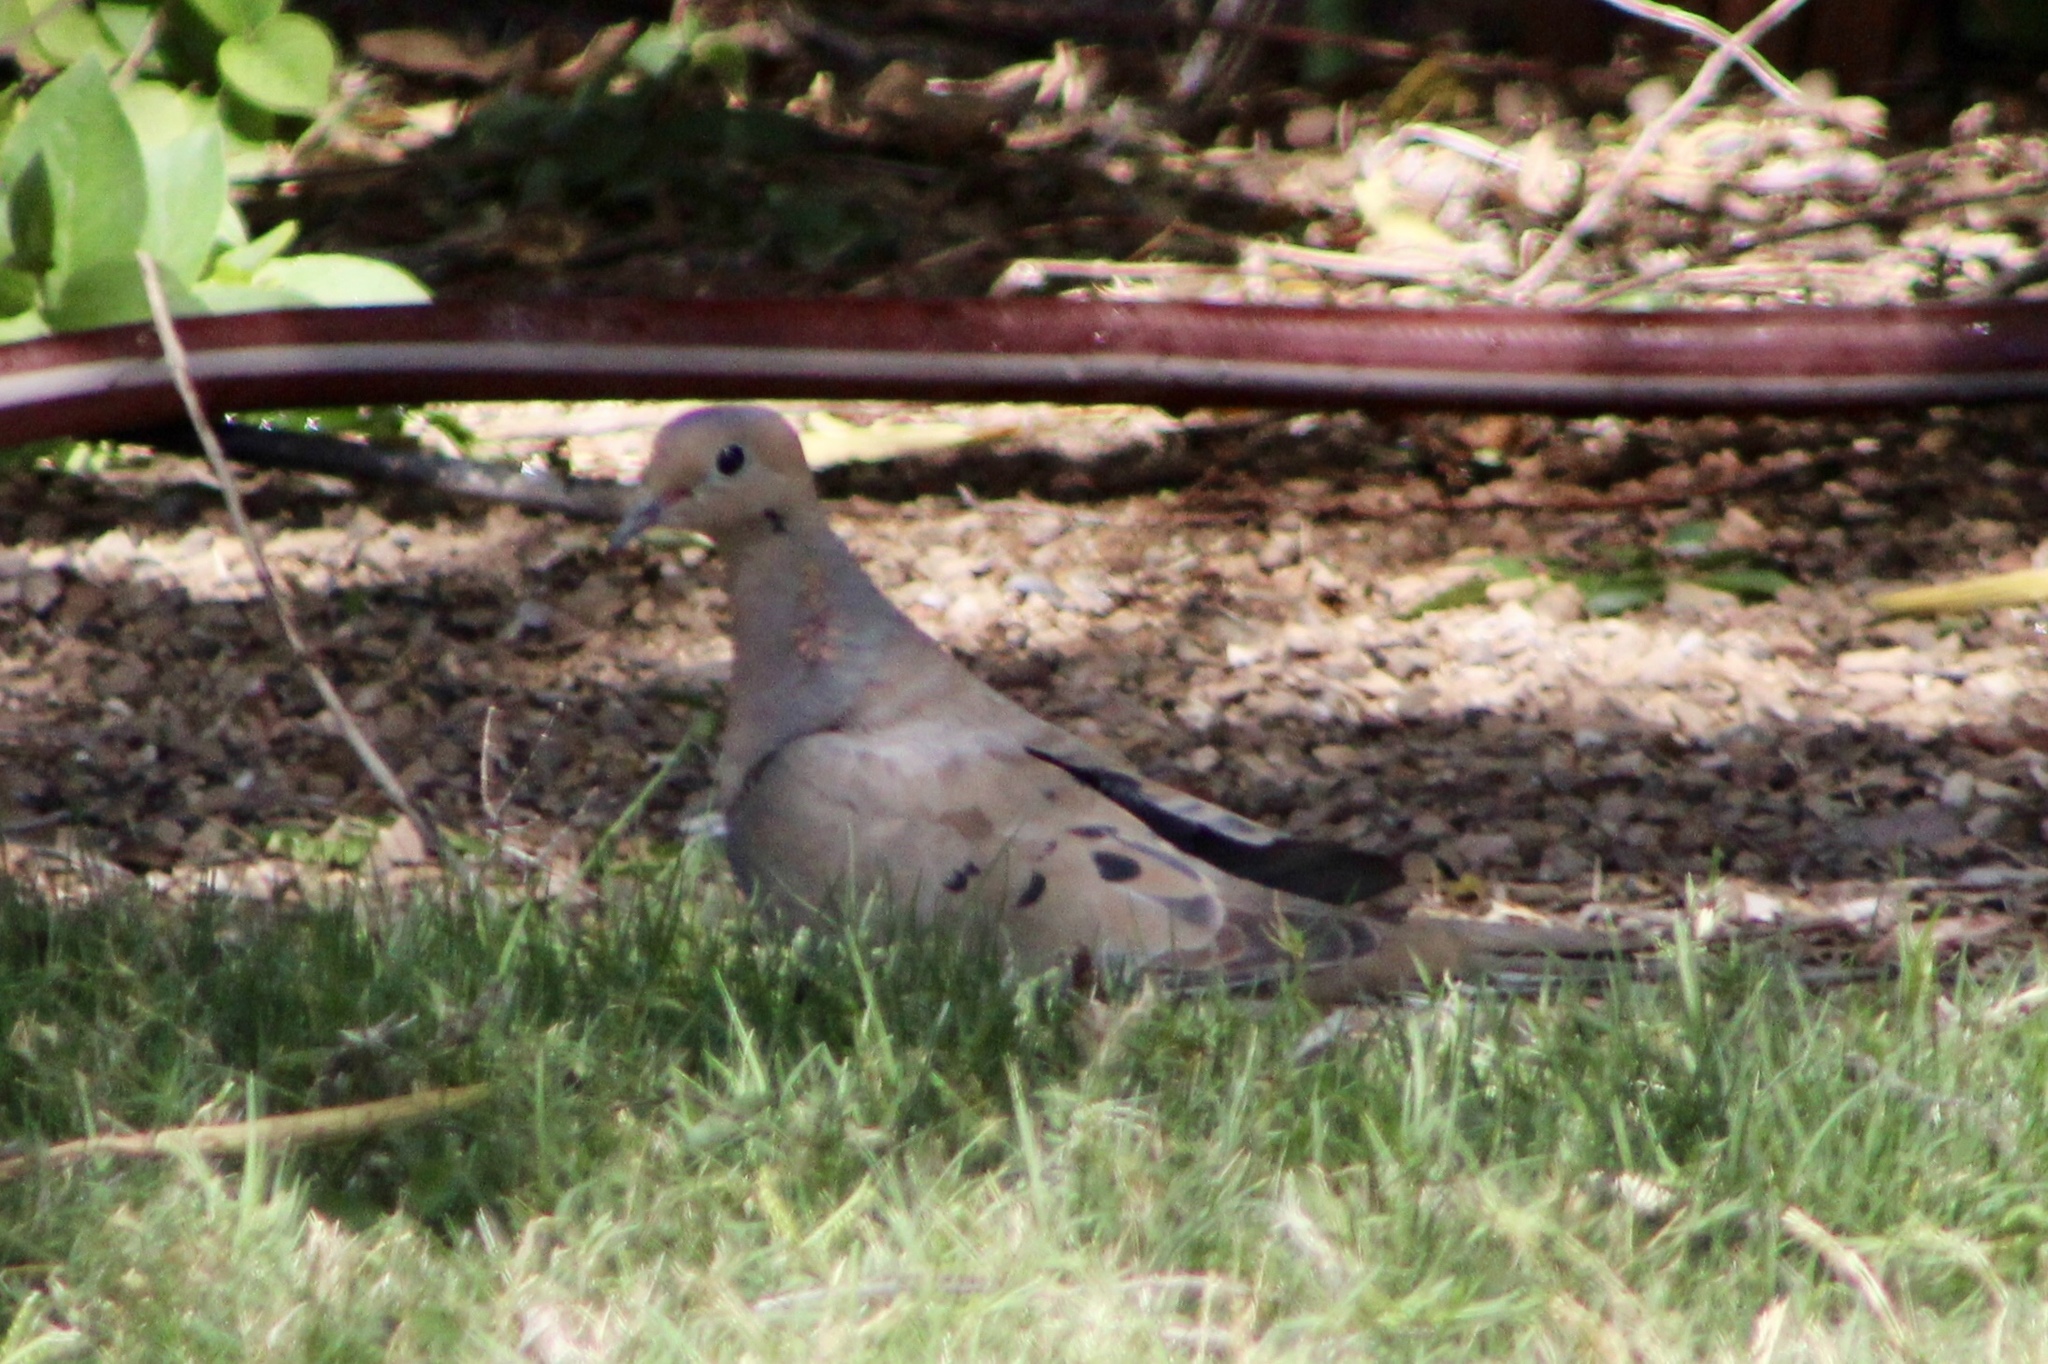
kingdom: Animalia
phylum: Chordata
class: Aves
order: Columbiformes
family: Columbidae
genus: Zenaida
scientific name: Zenaida macroura
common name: Mourning dove
